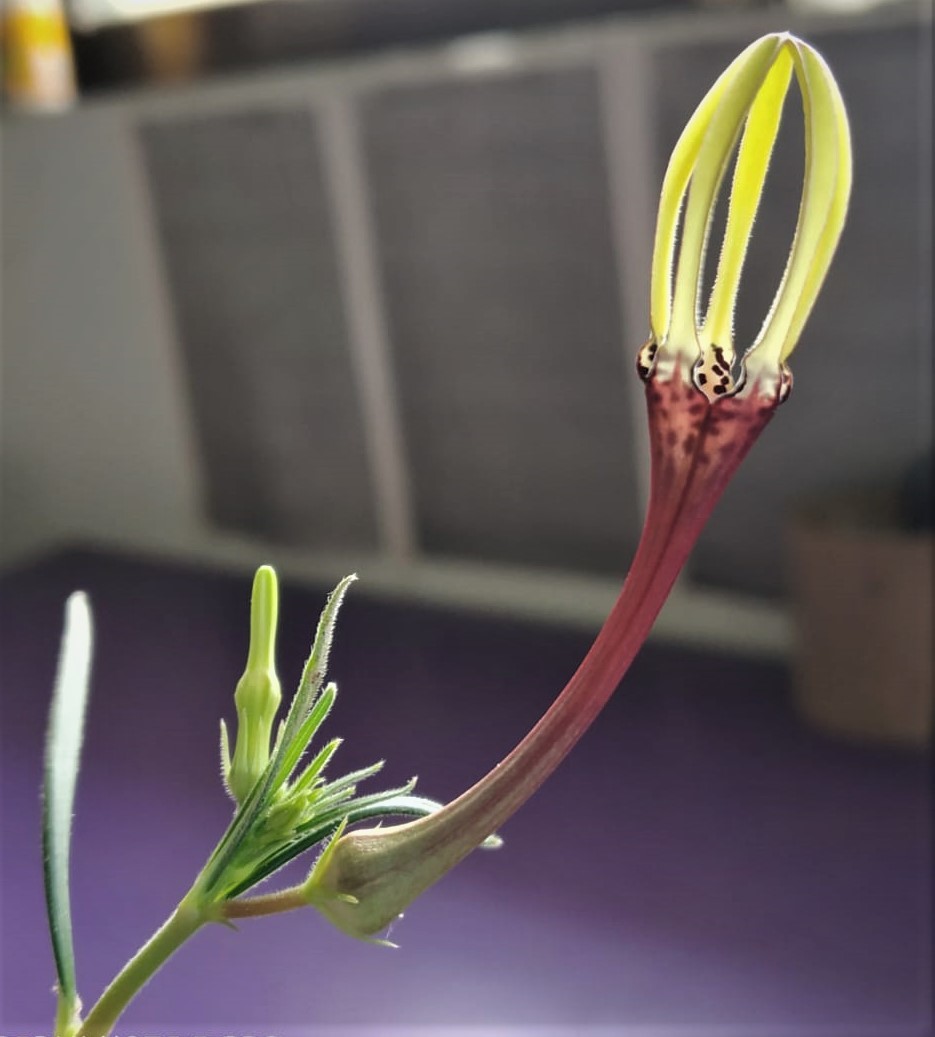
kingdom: Plantae
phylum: Tracheophyta
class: Magnoliopsida
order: Gentianales
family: Apocynaceae
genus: Ceropegia
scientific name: Ceropegia concanensis
